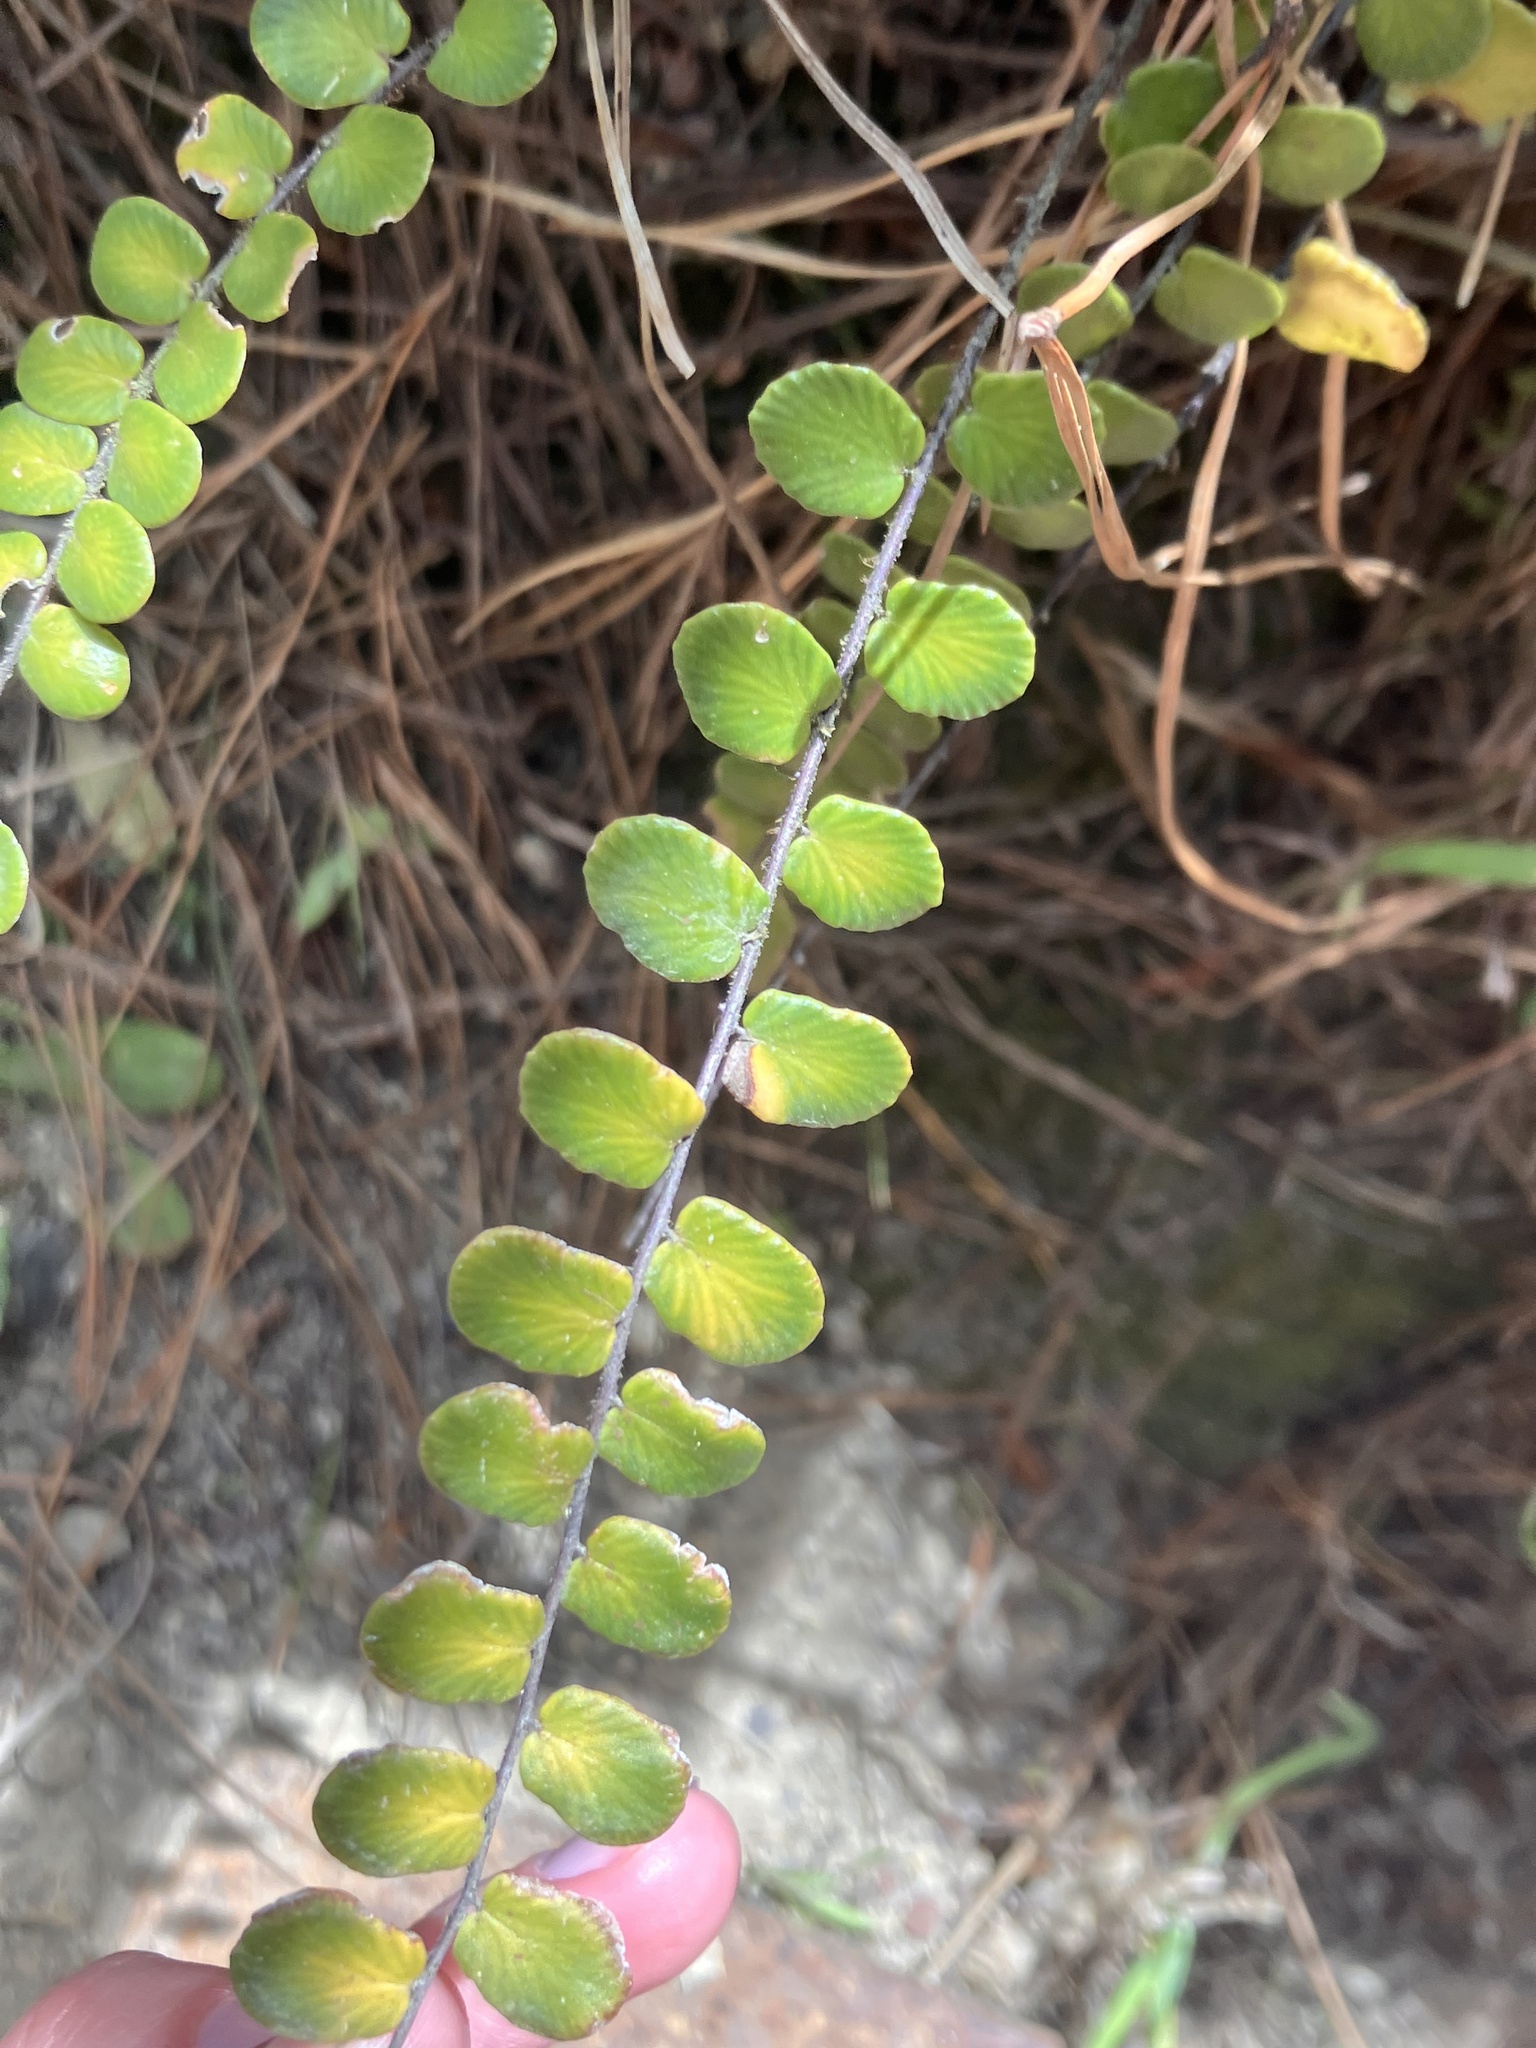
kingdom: Plantae
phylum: Tracheophyta
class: Polypodiopsida
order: Polypodiales
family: Pteridaceae
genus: Pellaea
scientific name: Pellaea rotundifolia
